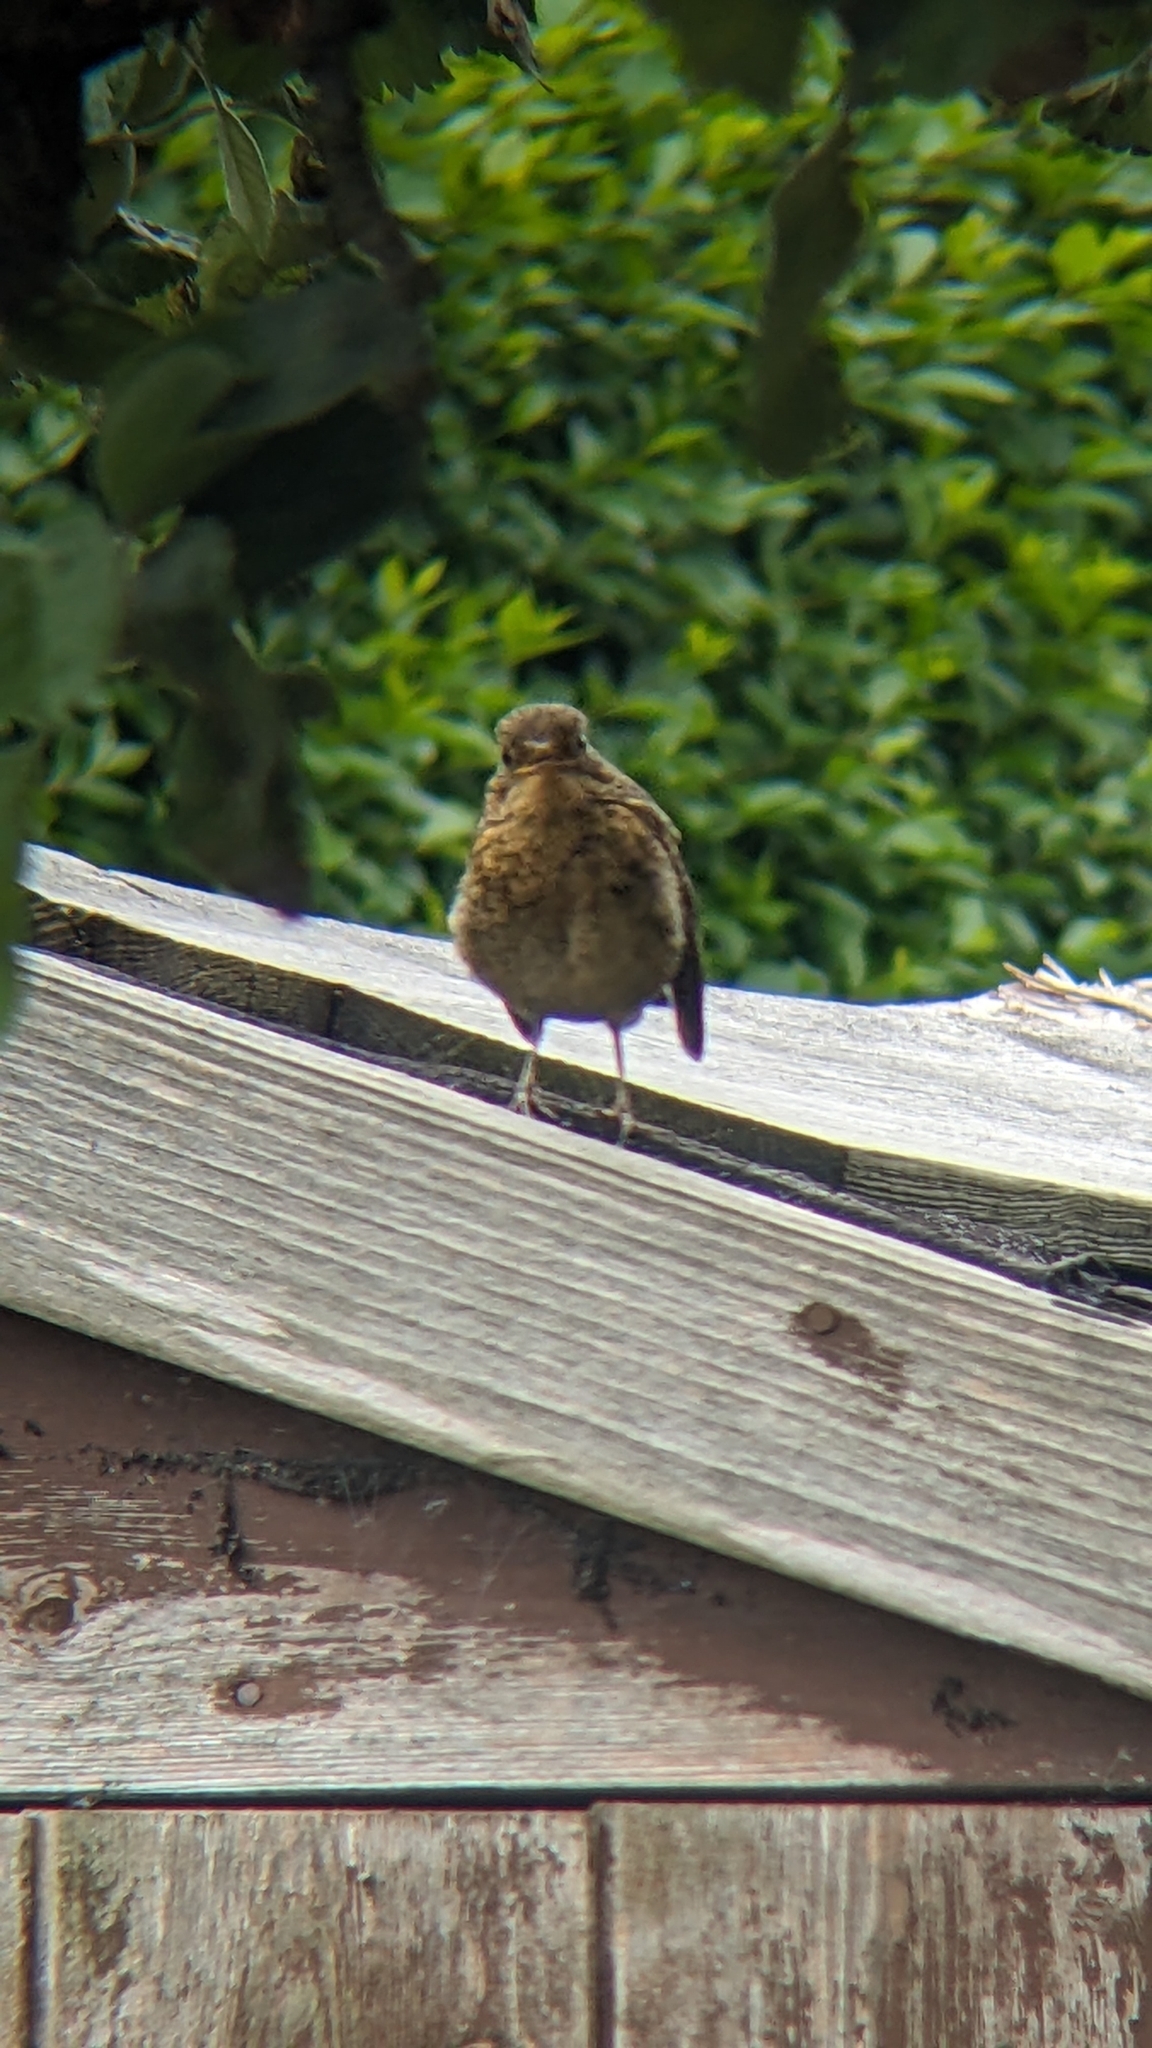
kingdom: Animalia
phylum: Chordata
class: Aves
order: Passeriformes
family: Muscicapidae
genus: Erithacus
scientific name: Erithacus rubecula
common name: European robin
